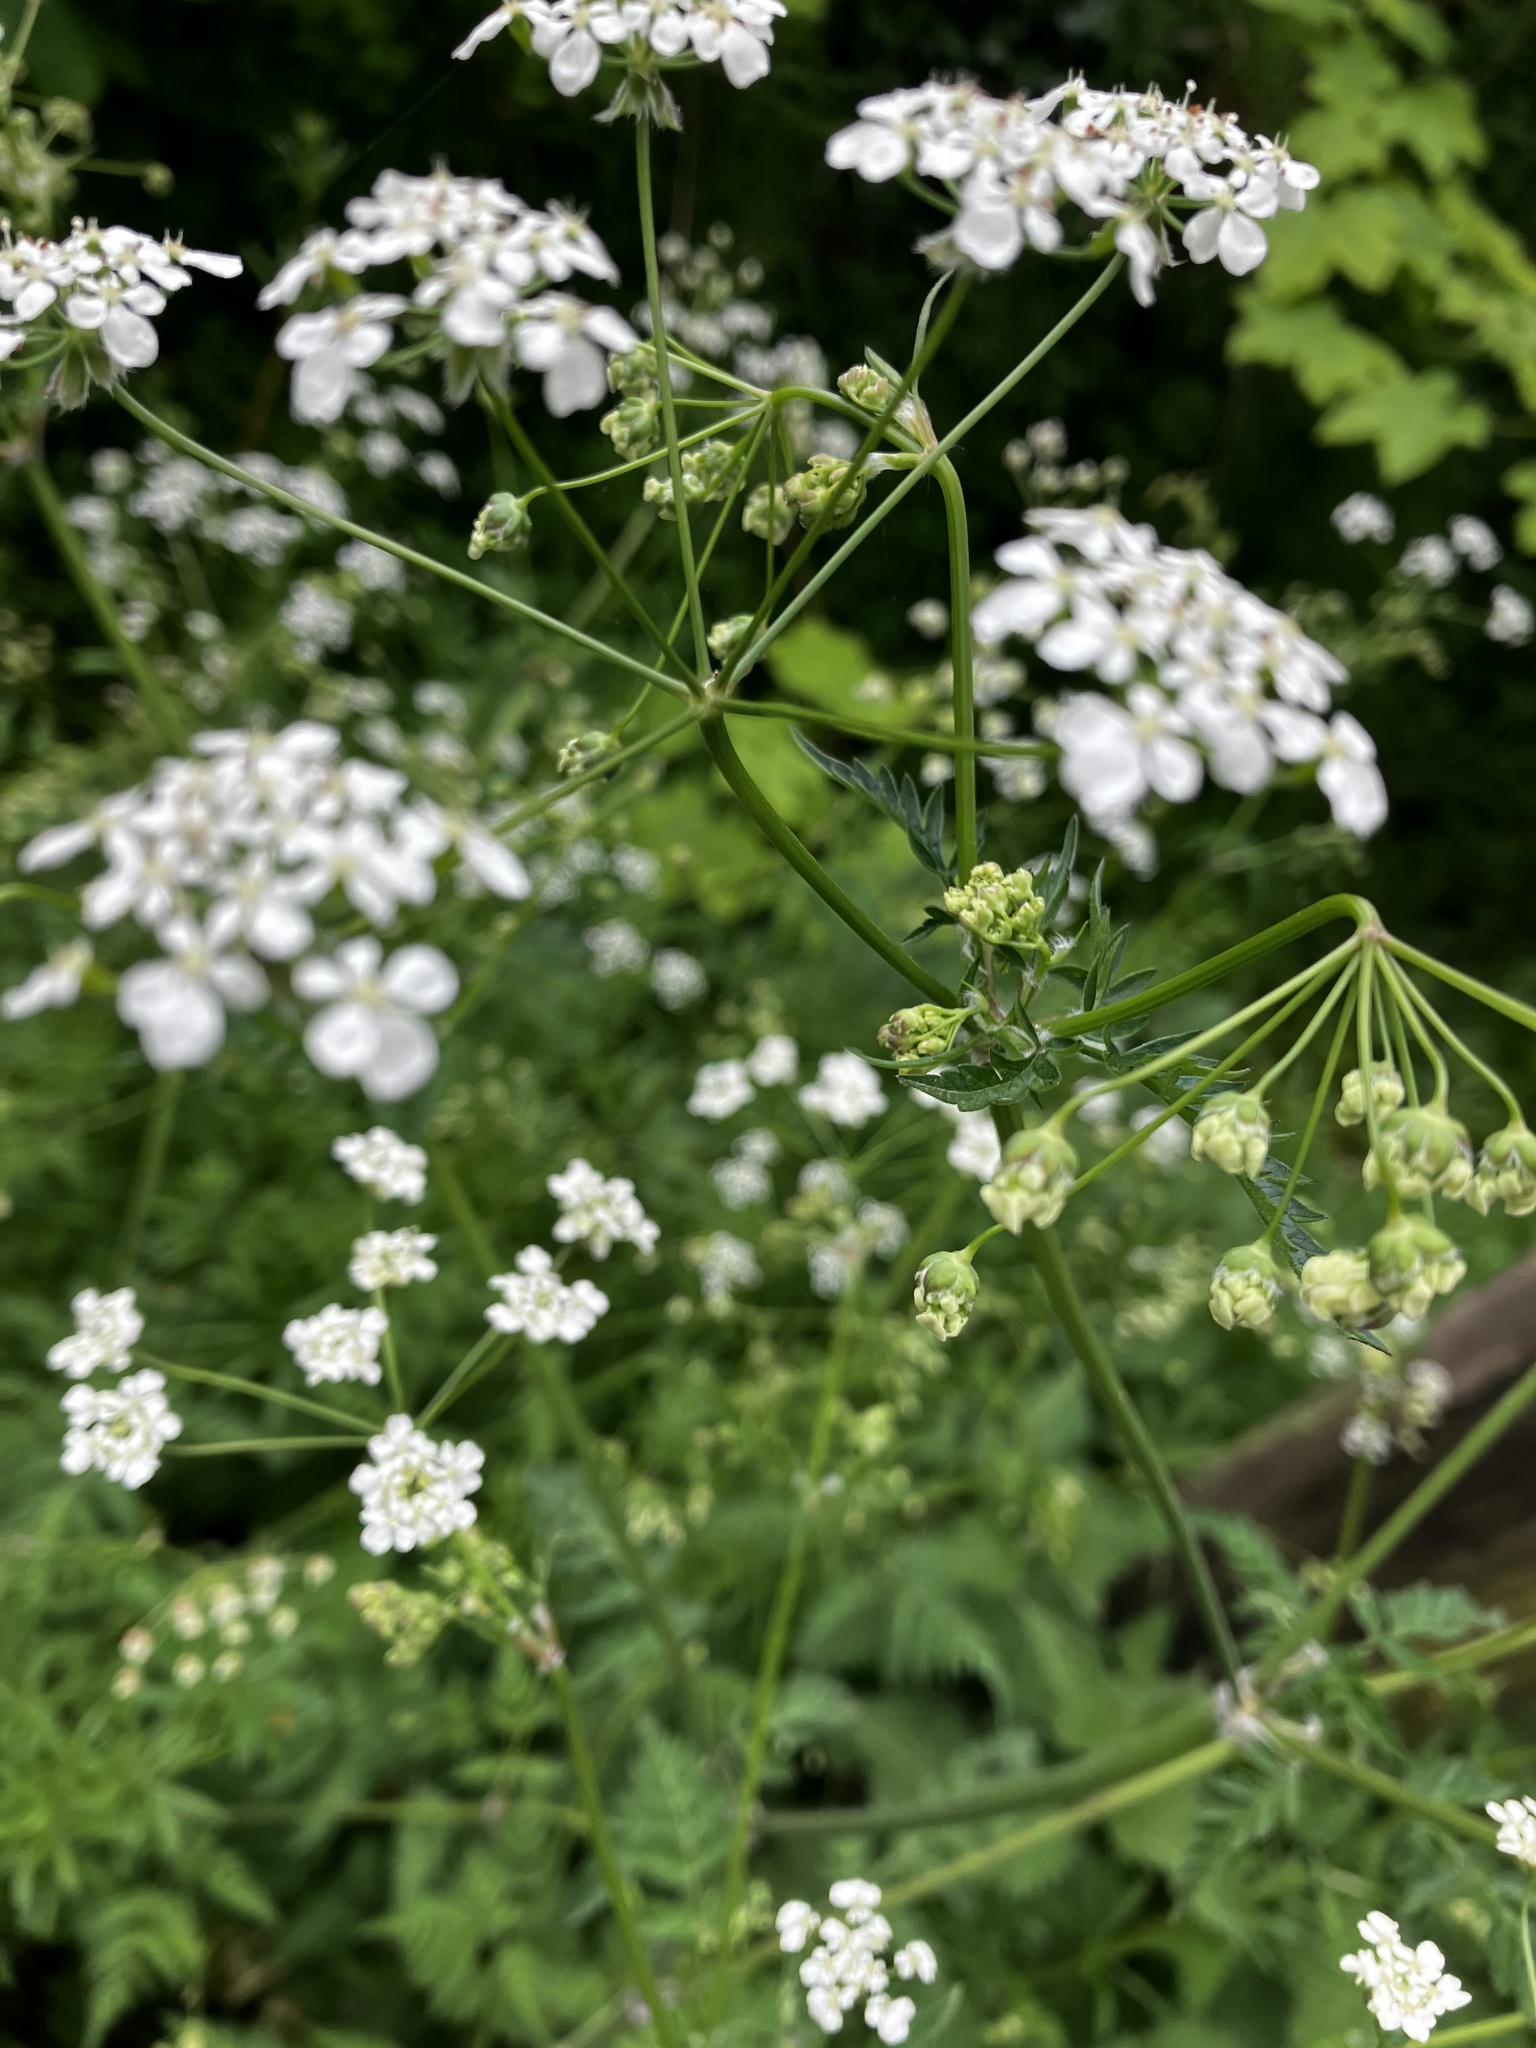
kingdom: Plantae
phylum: Tracheophyta
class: Magnoliopsida
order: Apiales
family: Apiaceae
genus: Anthriscus
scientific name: Anthriscus sylvestris
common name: Cow parsley
